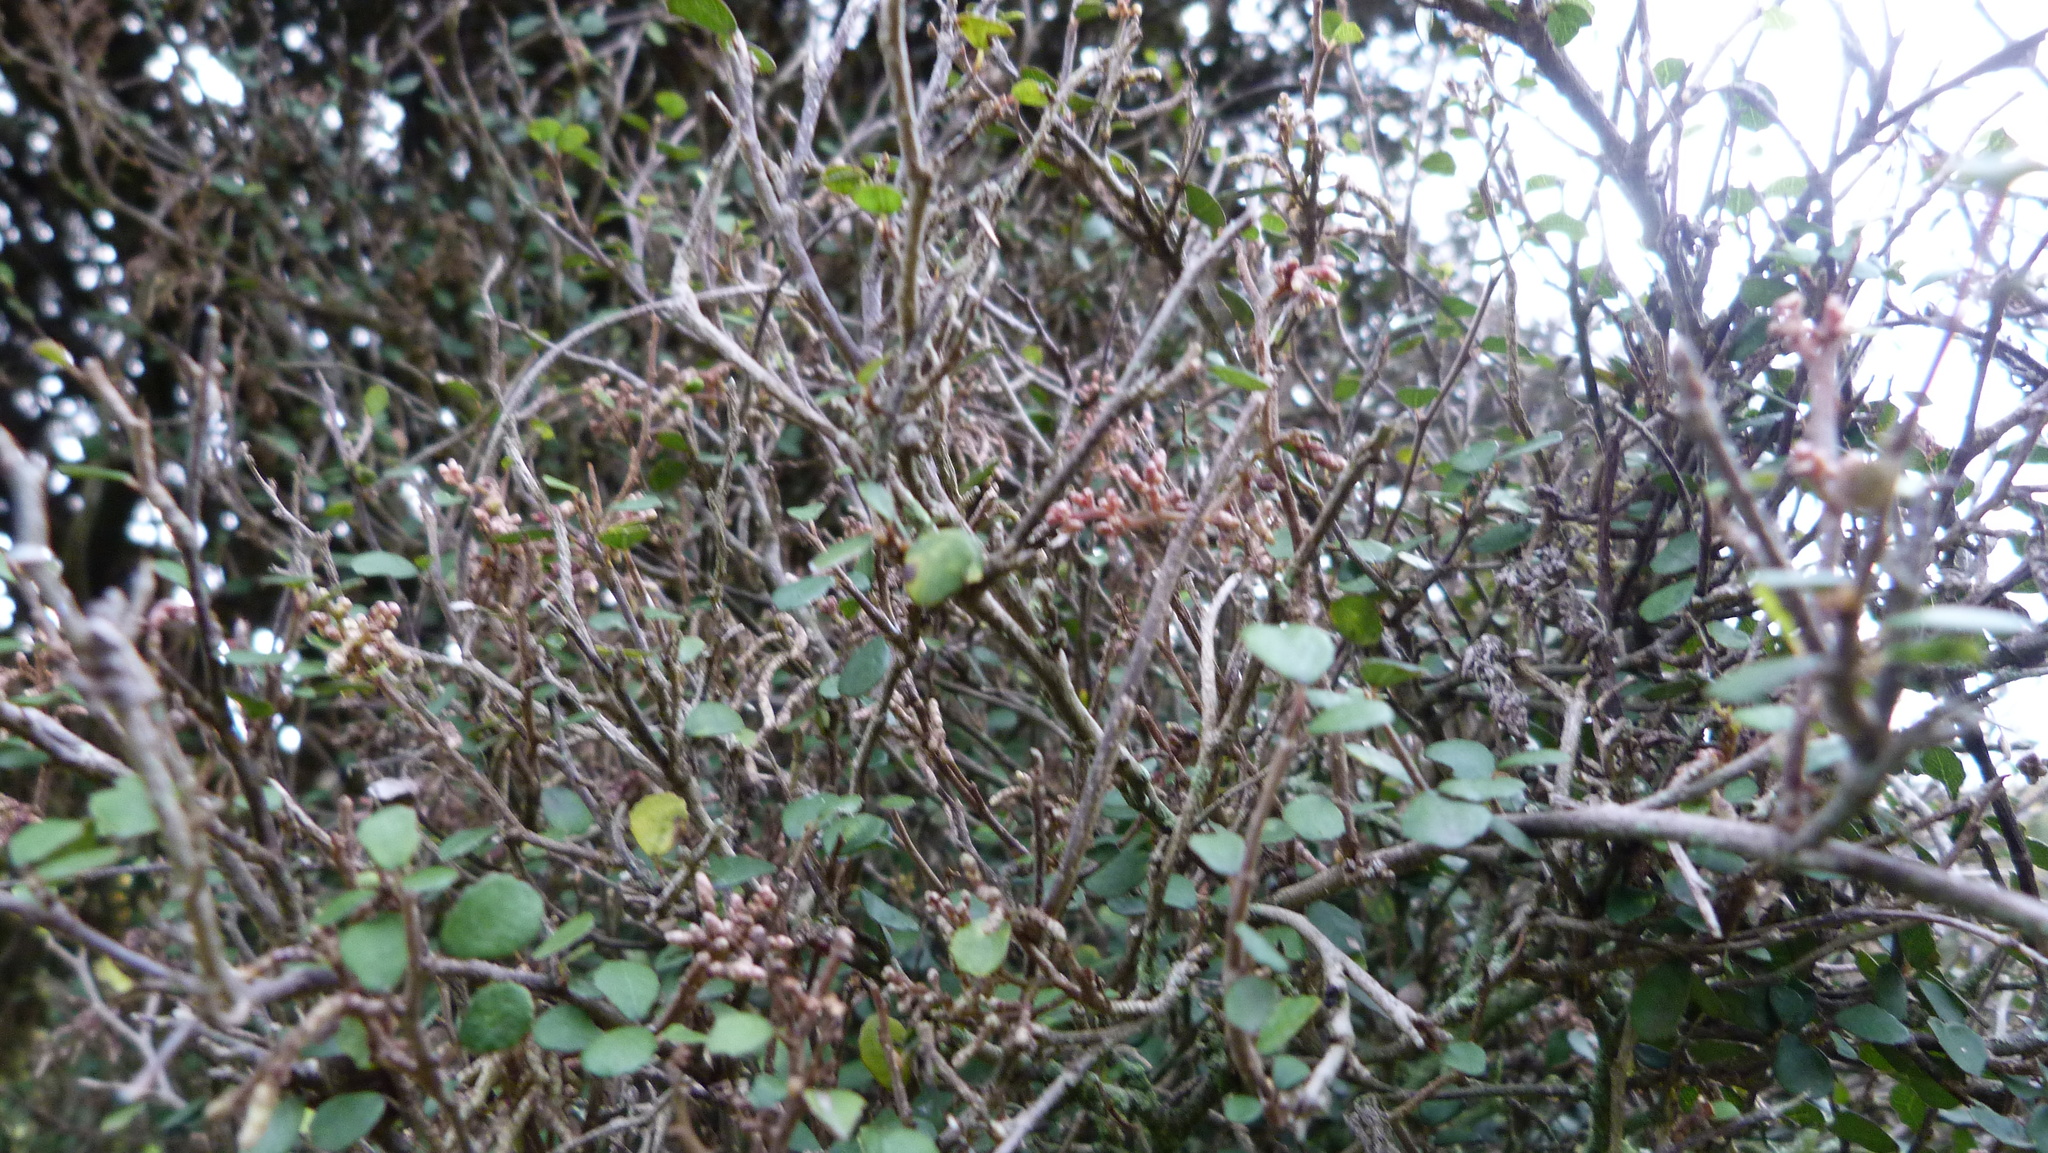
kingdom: Plantae
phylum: Tracheophyta
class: Magnoliopsida
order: Rosales
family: Moraceae
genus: Paratrophis
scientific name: Paratrophis microphylla
